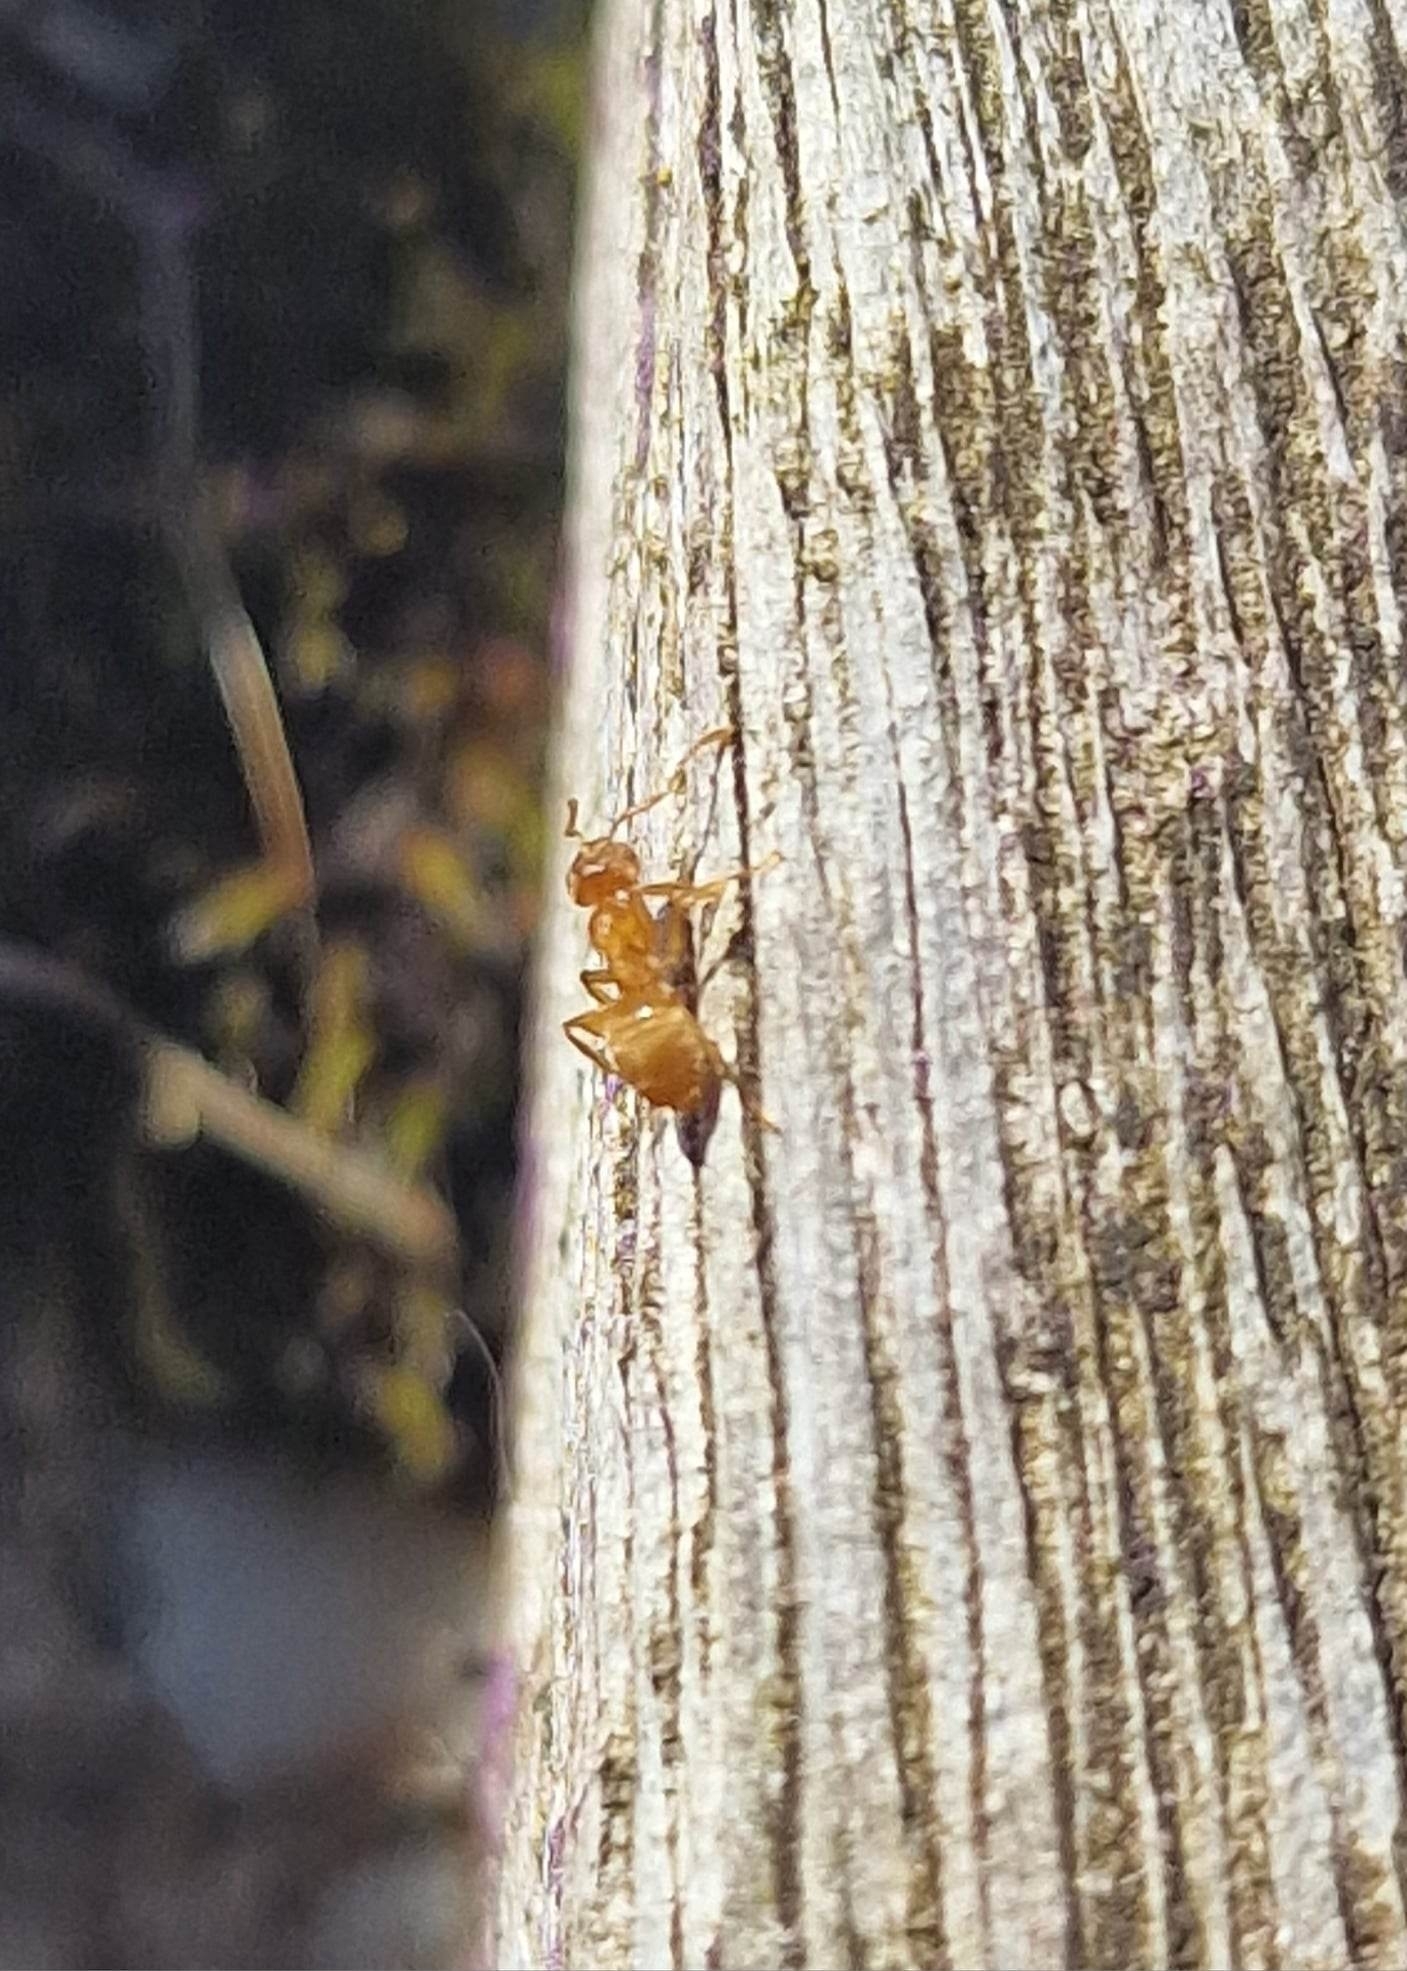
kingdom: Animalia
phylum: Arthropoda
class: Insecta
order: Hymenoptera
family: Formicidae
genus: Lasius
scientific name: Lasius flavus
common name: Blond field ant
